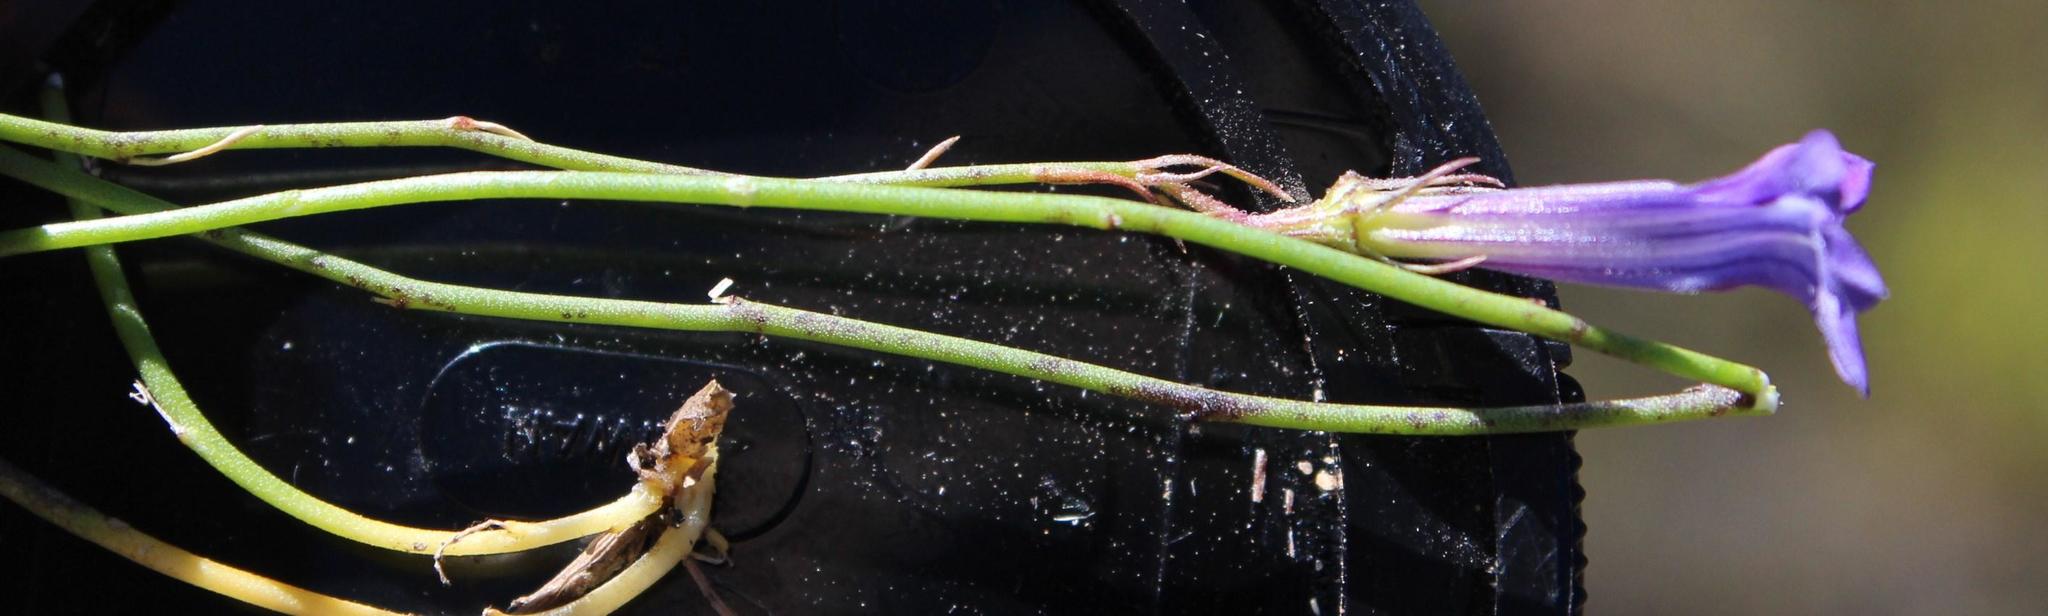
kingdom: Plantae
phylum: Tracheophyta
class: Magnoliopsida
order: Asterales
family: Campanulaceae
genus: Lobelia
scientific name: Lobelia linearis
